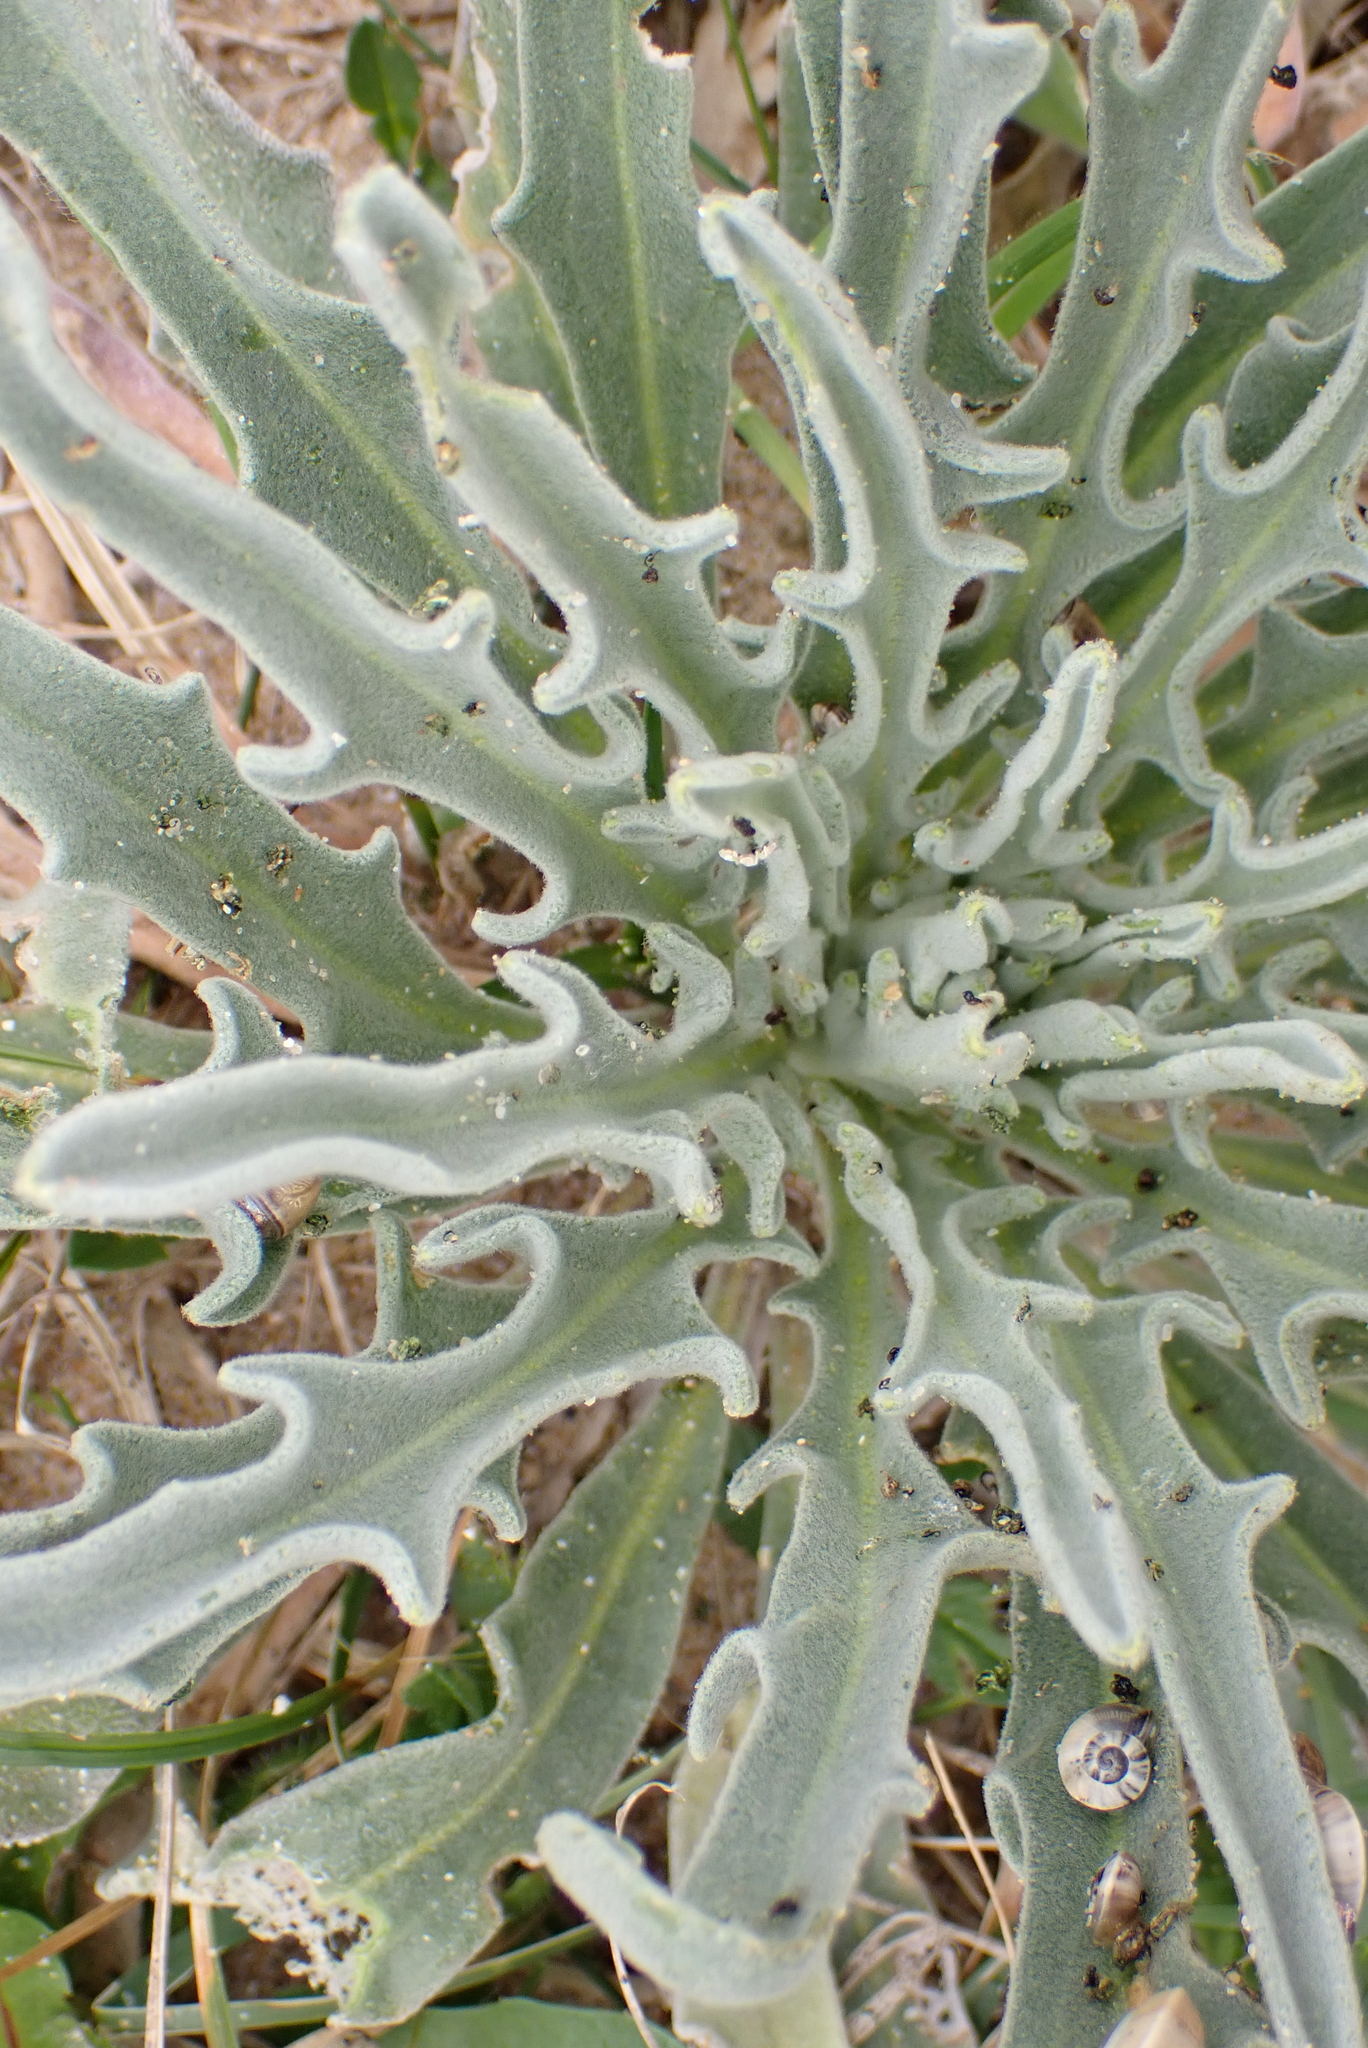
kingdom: Plantae
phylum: Tracheophyta
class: Magnoliopsida
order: Brassicales
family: Brassicaceae
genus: Matthiola
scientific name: Matthiola sinuata
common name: Sea stock
